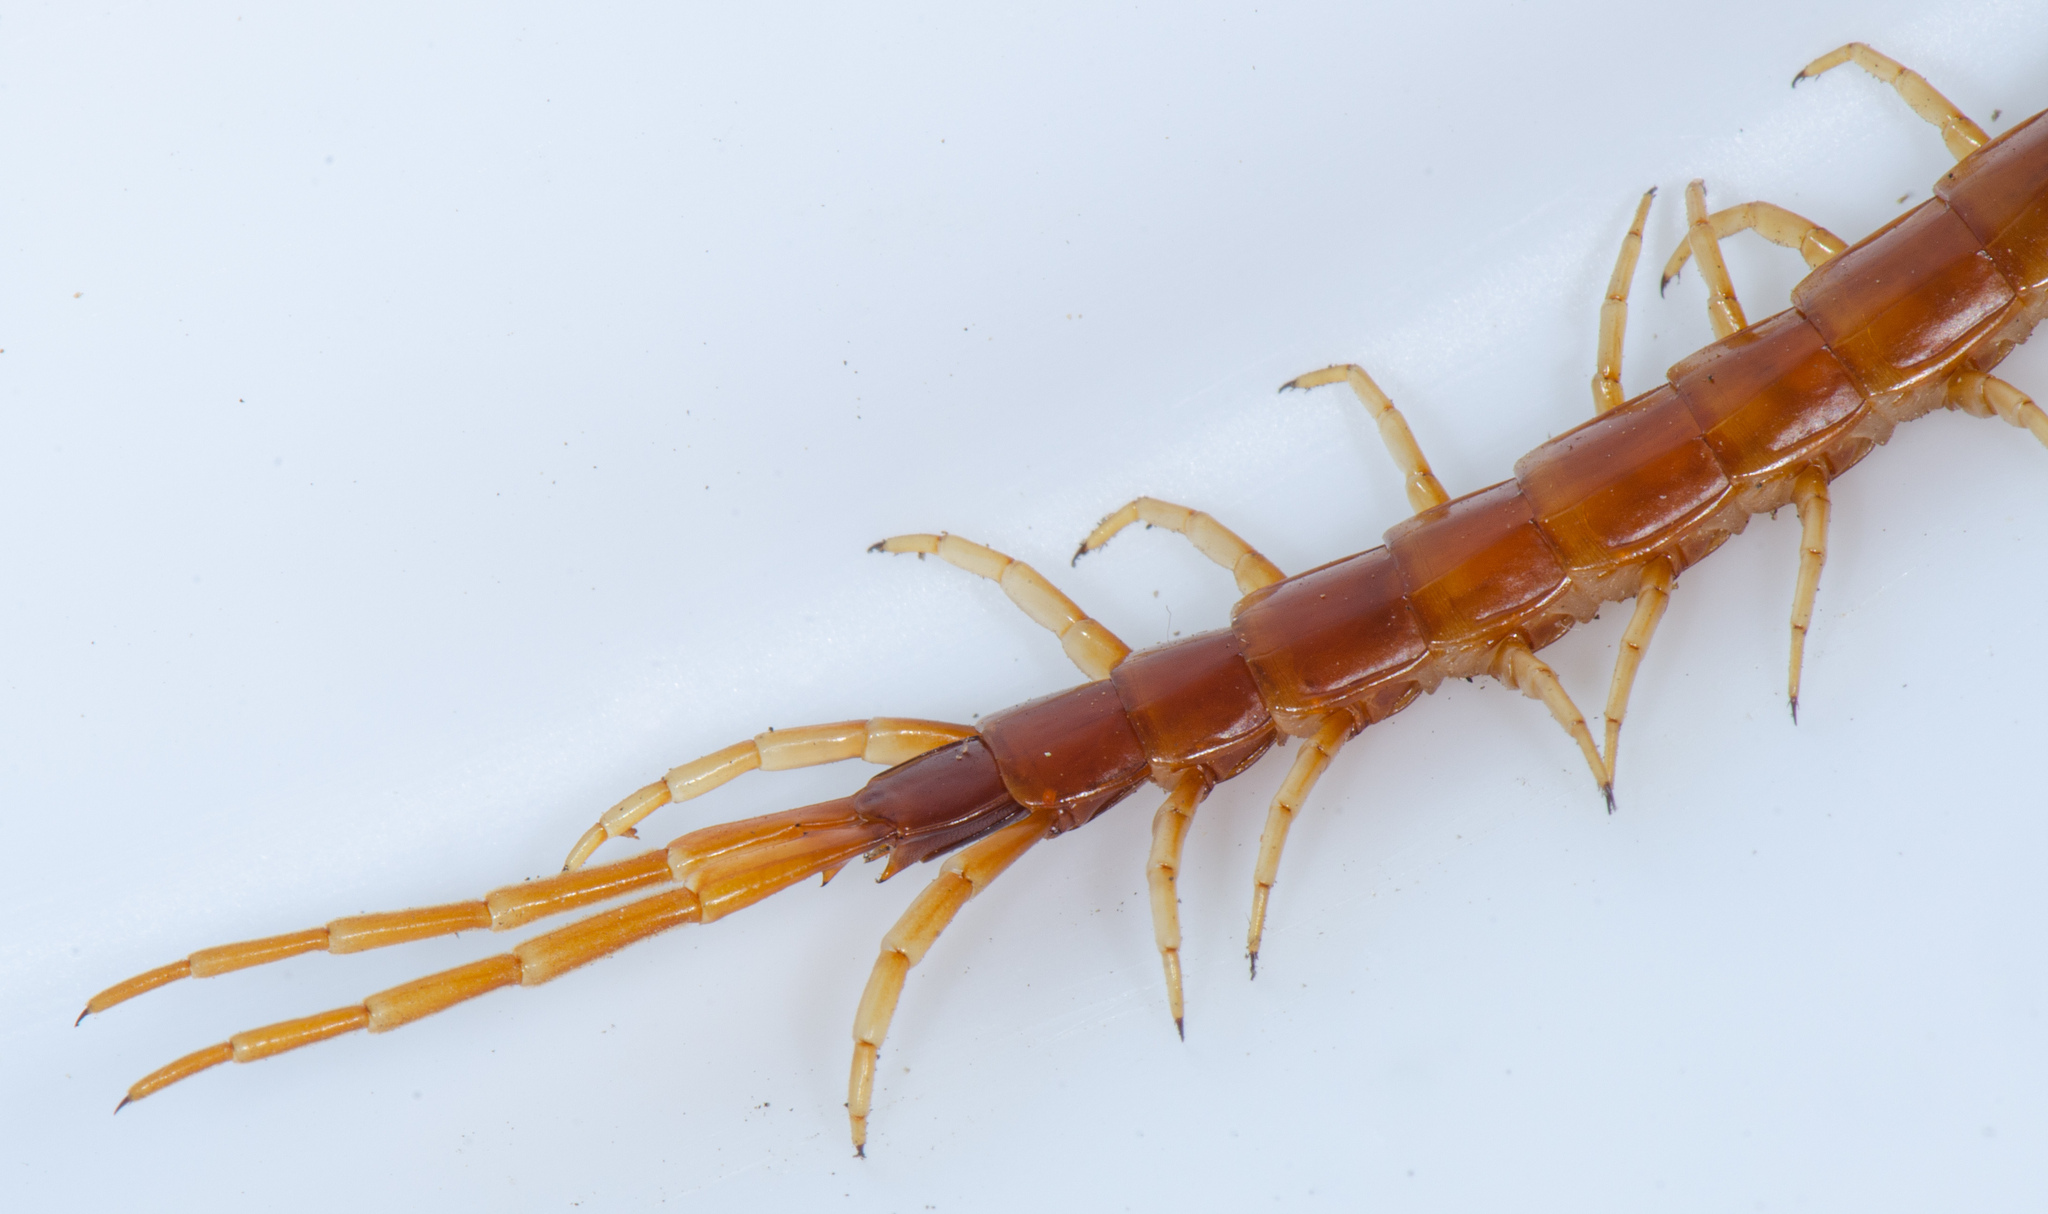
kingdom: Animalia
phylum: Arthropoda
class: Chilopoda
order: Scolopendromorpha
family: Scolopocryptopidae
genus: Scolopocryptops
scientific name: Scolopocryptops gracilis
